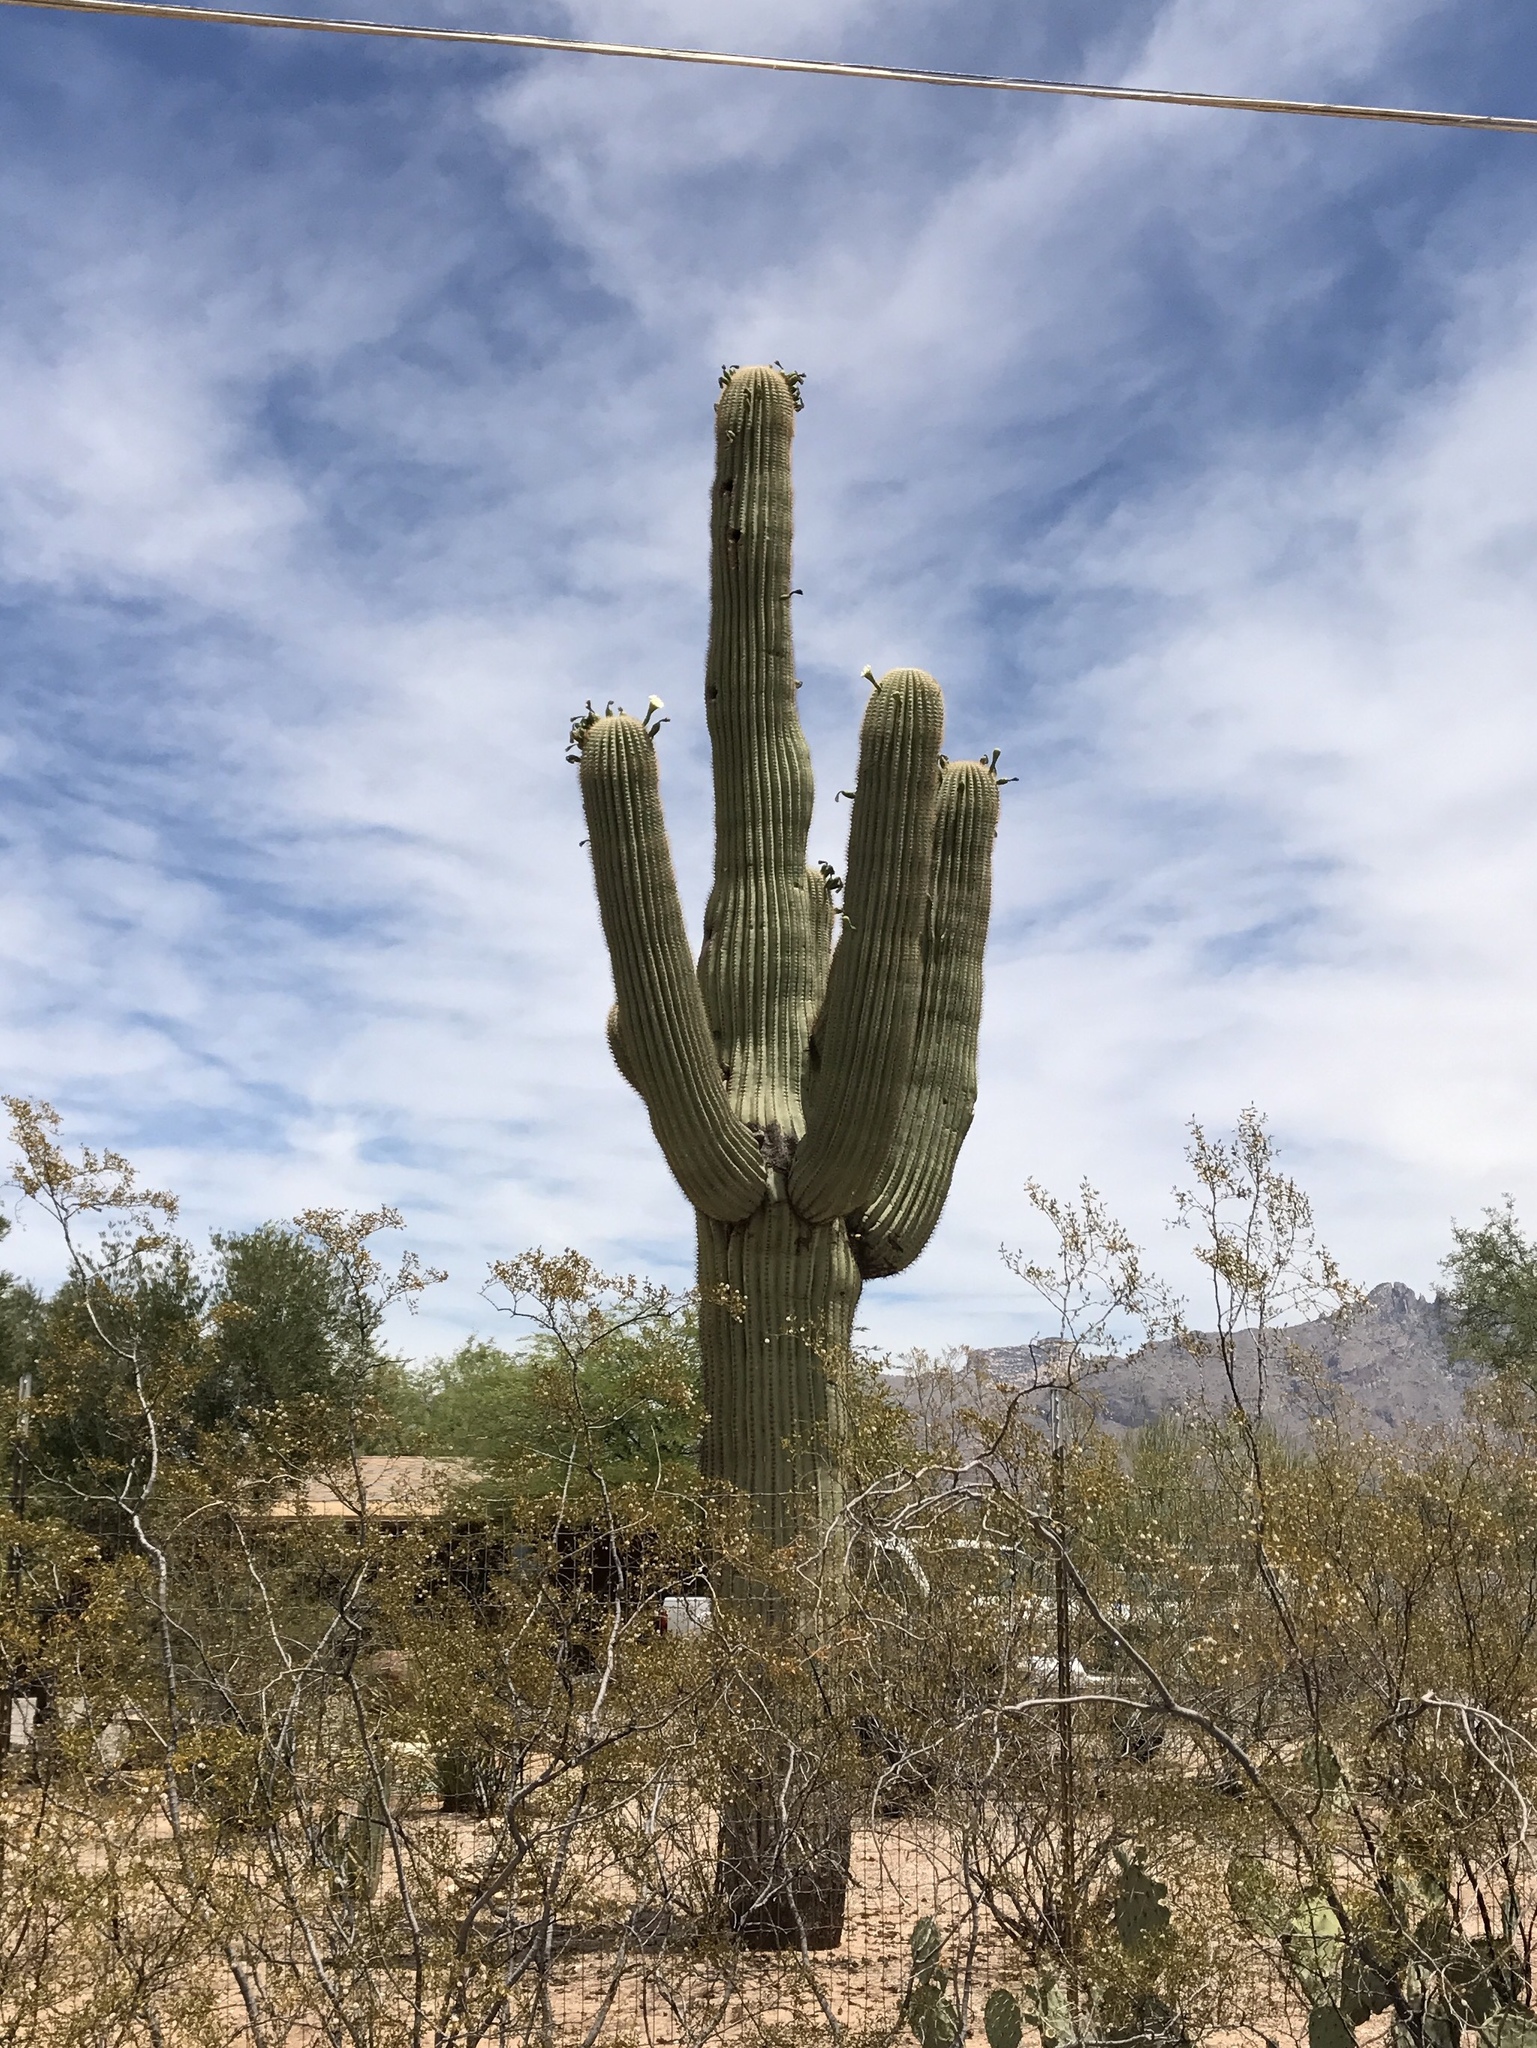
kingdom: Plantae
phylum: Tracheophyta
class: Magnoliopsida
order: Caryophyllales
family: Cactaceae
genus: Carnegiea
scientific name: Carnegiea gigantea
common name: Saguaro
